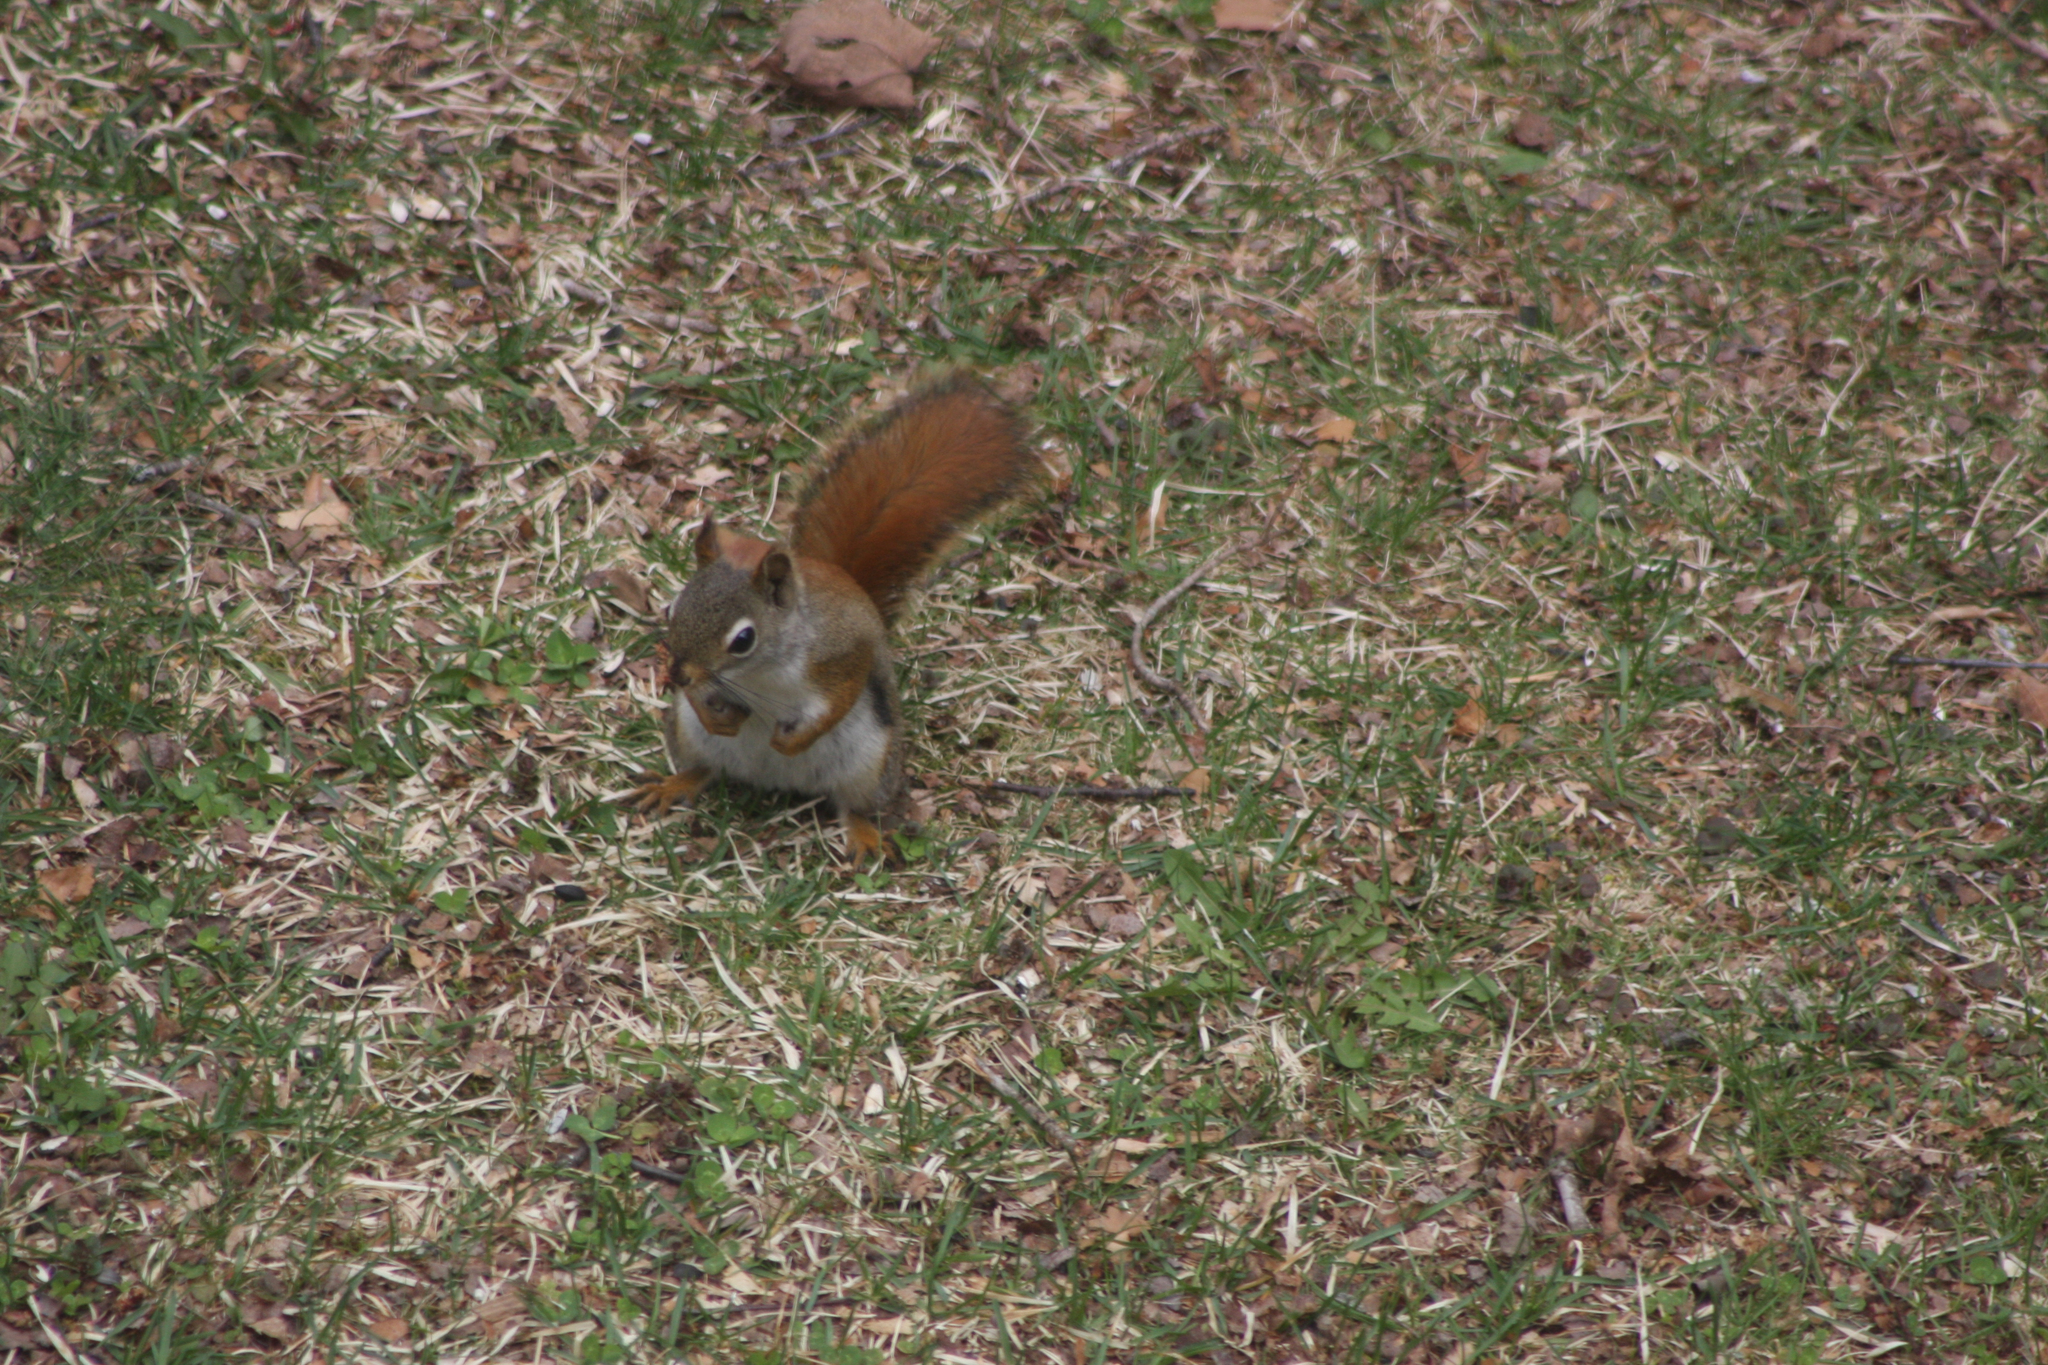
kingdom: Animalia
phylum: Chordata
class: Mammalia
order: Rodentia
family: Sciuridae
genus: Tamiasciurus
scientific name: Tamiasciurus hudsonicus
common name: Red squirrel
